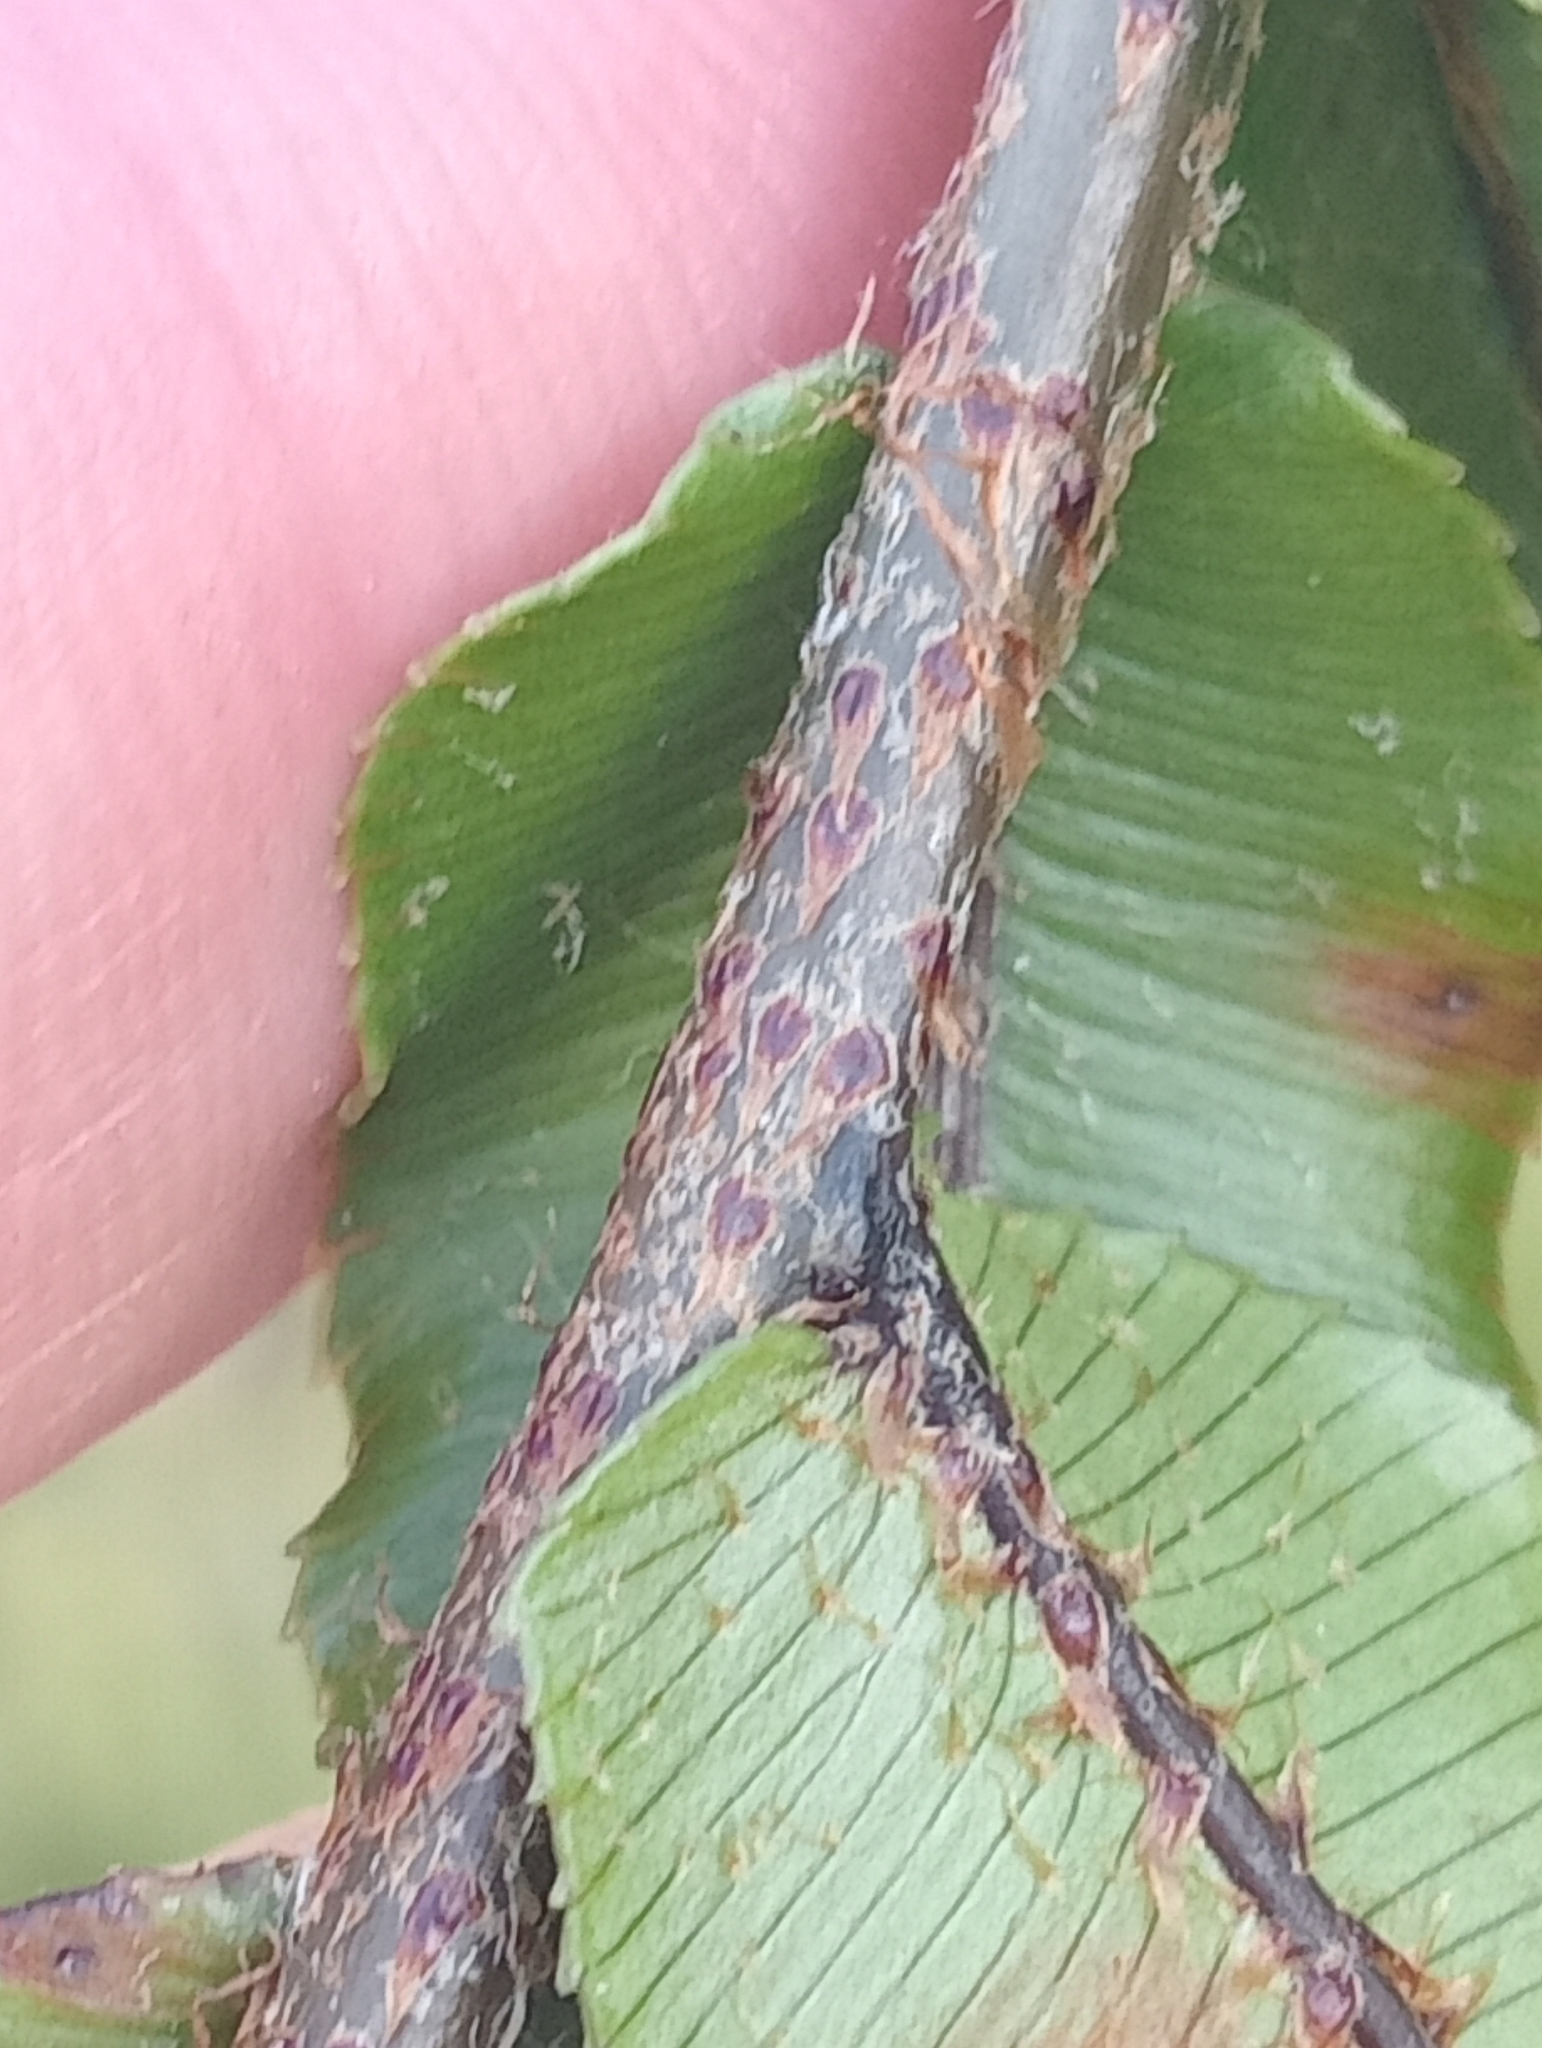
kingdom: Plantae
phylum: Tracheophyta
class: Polypodiopsida
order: Polypodiales
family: Blechnaceae
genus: Parablechnum
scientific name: Parablechnum montanum
